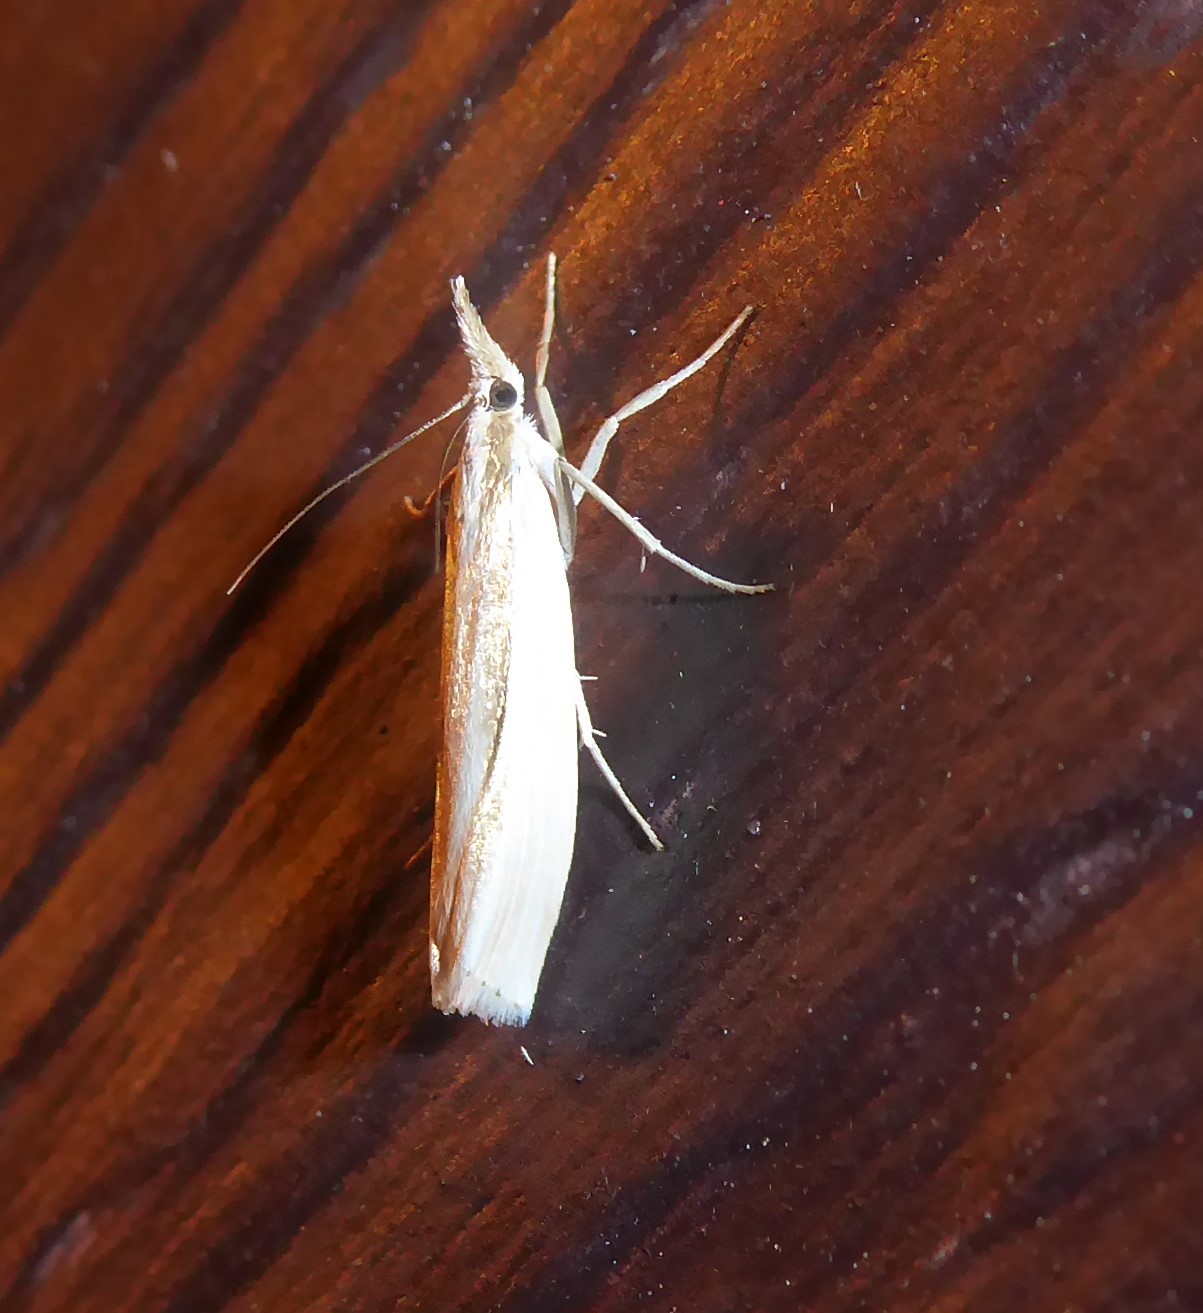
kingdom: Animalia
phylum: Arthropoda
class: Insecta
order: Lepidoptera
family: Crambidae
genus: Orocrambus
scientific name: Orocrambus ramosellus
